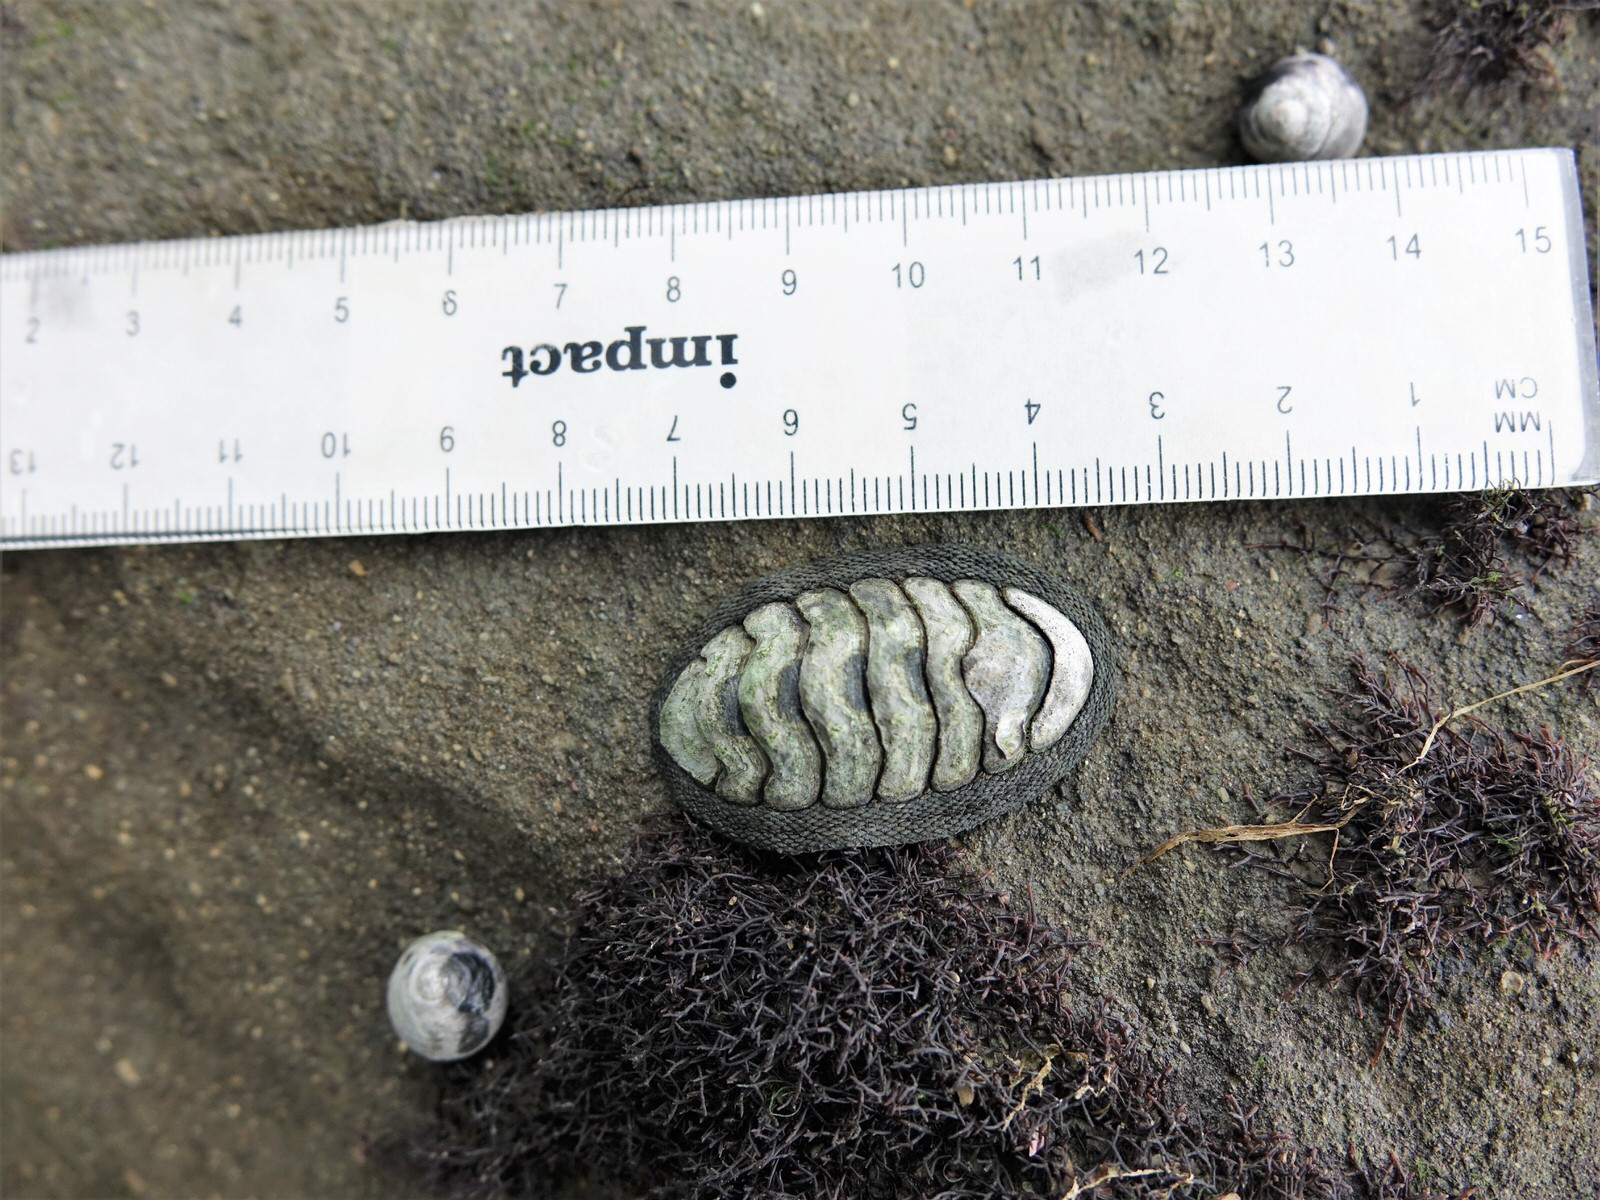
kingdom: Animalia
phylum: Mollusca
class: Polyplacophora
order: Chitonida
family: Chitonidae
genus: Chiton
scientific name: Chiton glaucus
